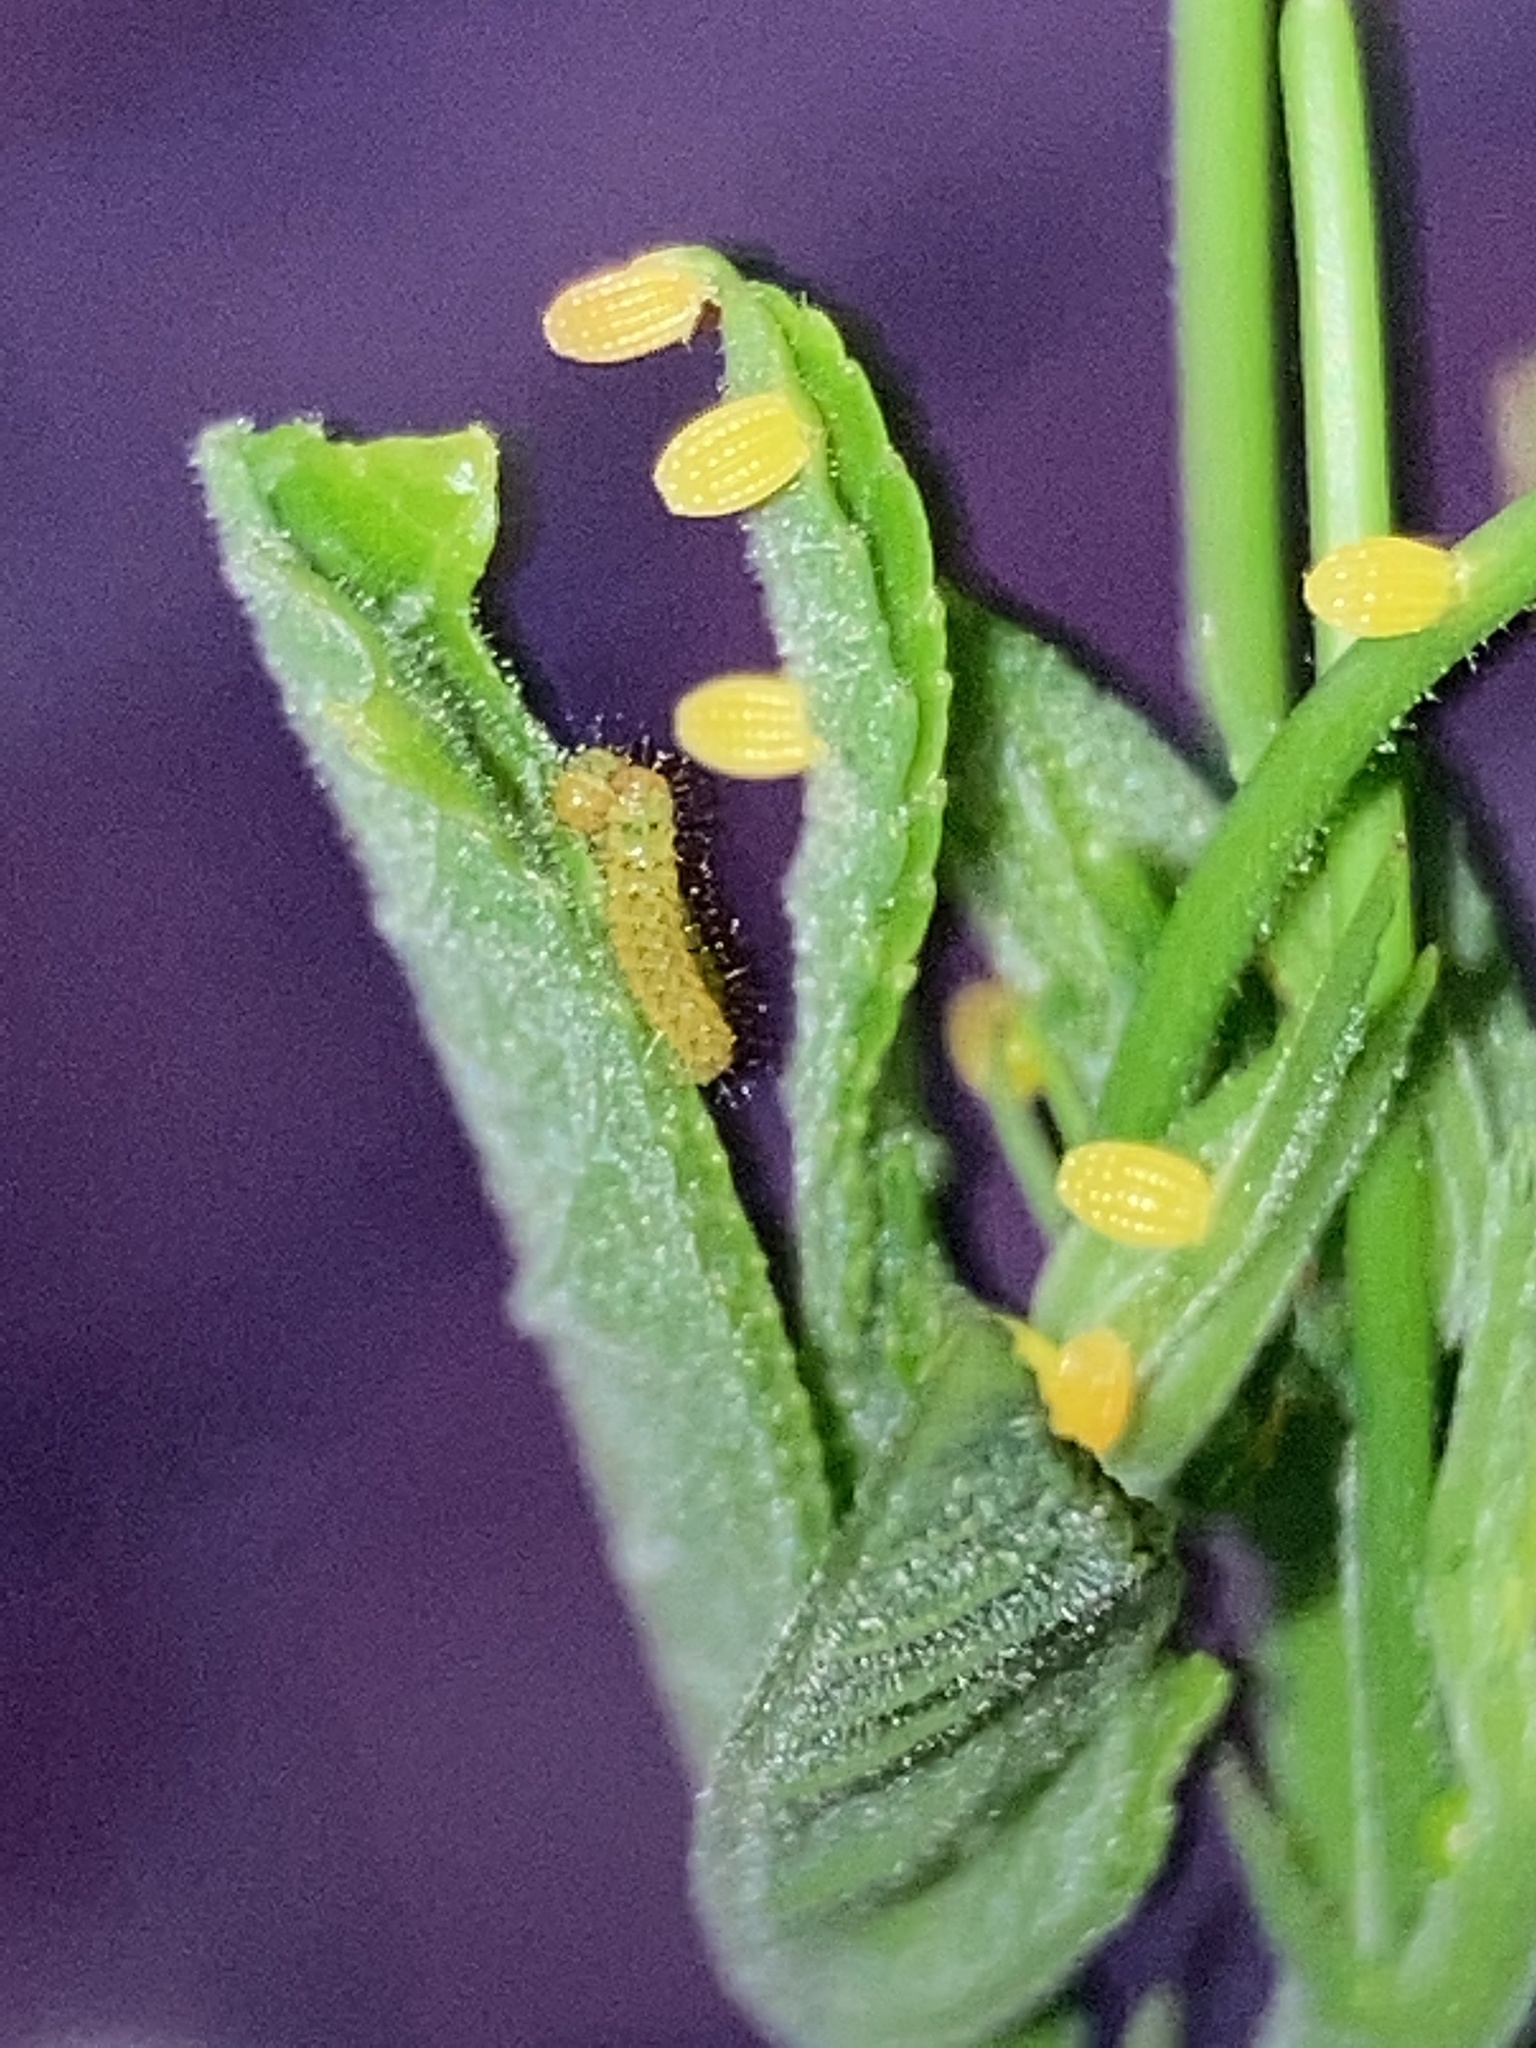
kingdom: Animalia
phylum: Arthropoda
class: Insecta
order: Lepidoptera
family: Nymphalidae
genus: Heliconius
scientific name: Heliconius charithonia
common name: Zebra long wing
